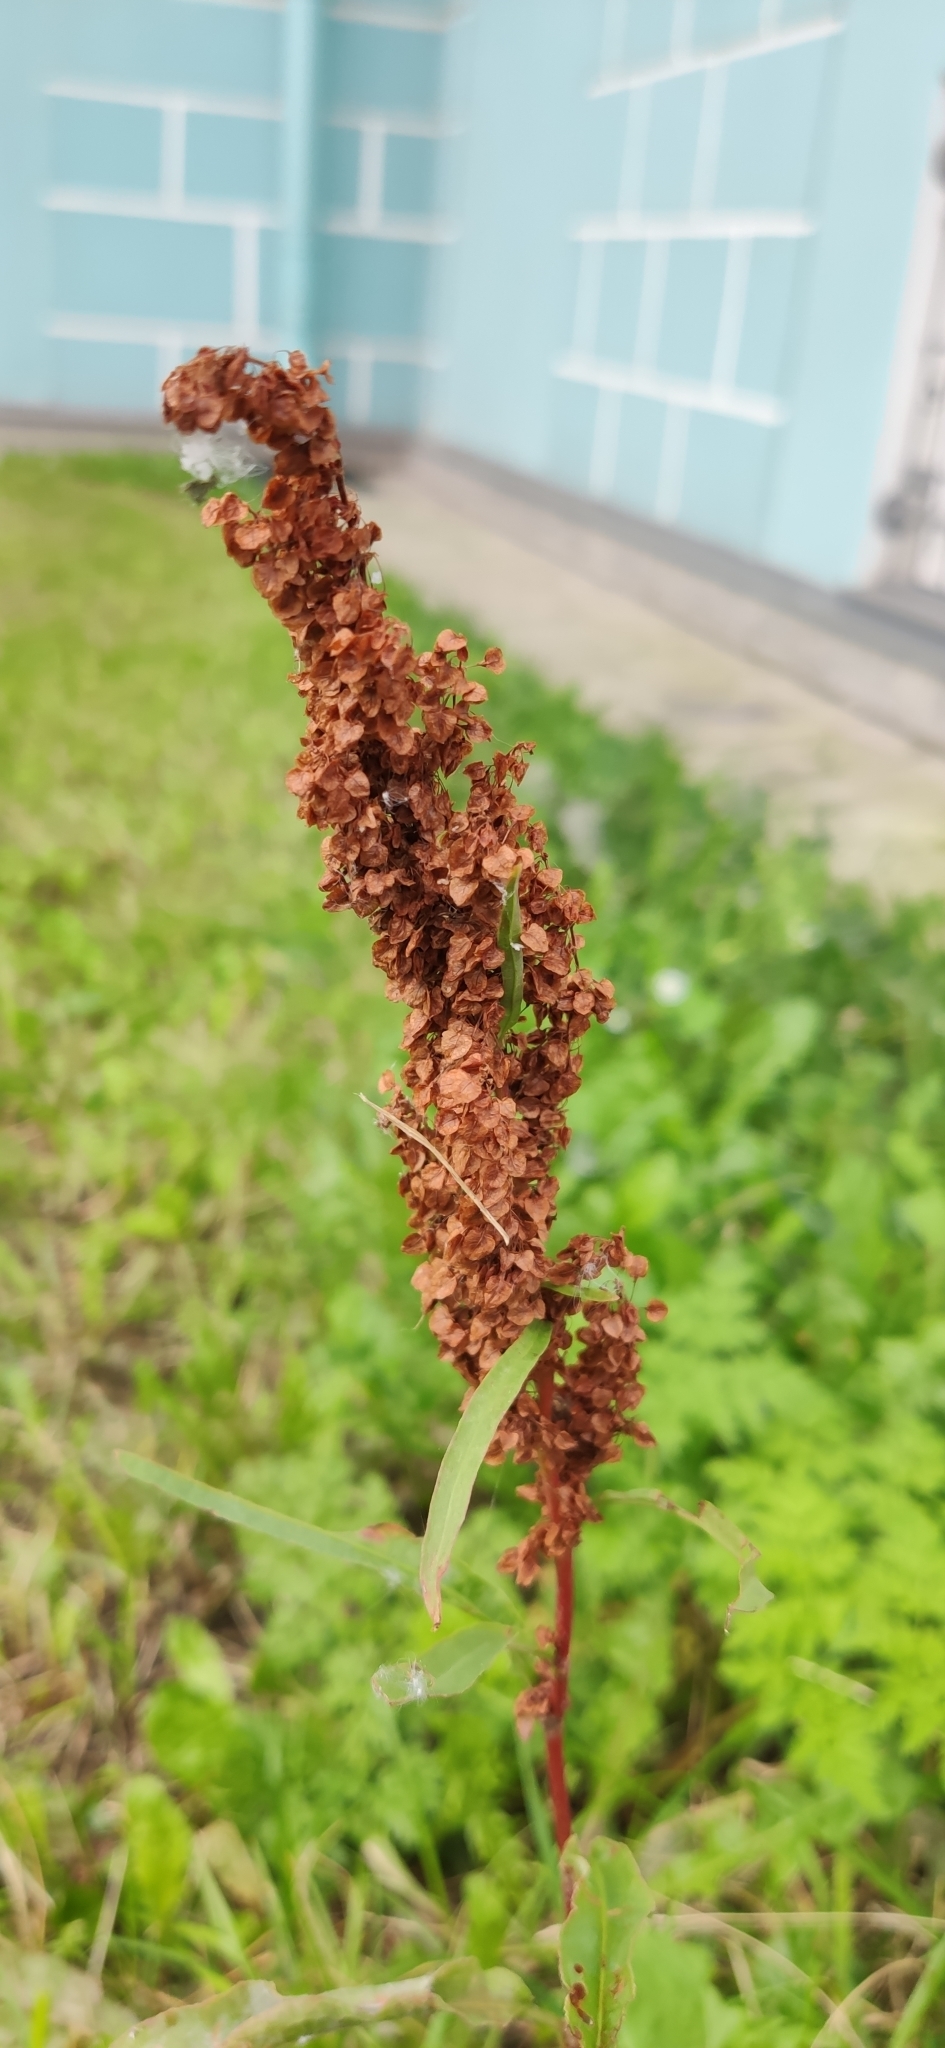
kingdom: Plantae
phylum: Tracheophyta
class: Magnoliopsida
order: Caryophyllales
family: Polygonaceae
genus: Rumex
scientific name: Rumex pseudonatronatus
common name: Field dock
